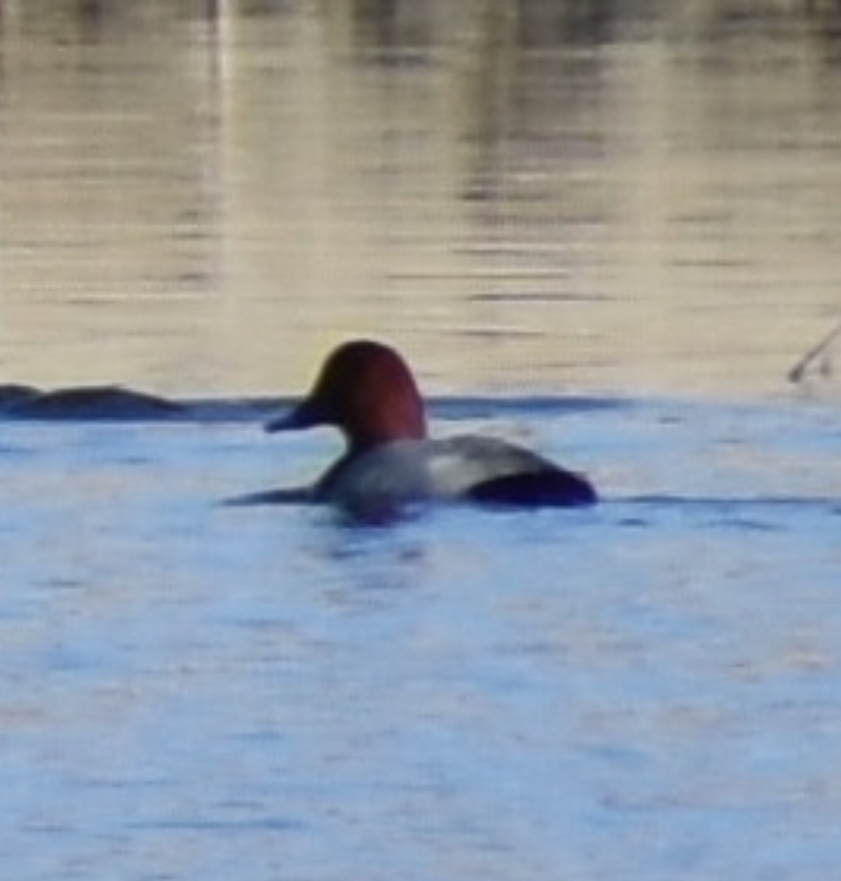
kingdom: Animalia
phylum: Chordata
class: Aves
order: Anseriformes
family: Anatidae
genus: Aythya
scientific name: Aythya ferina
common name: Common pochard
